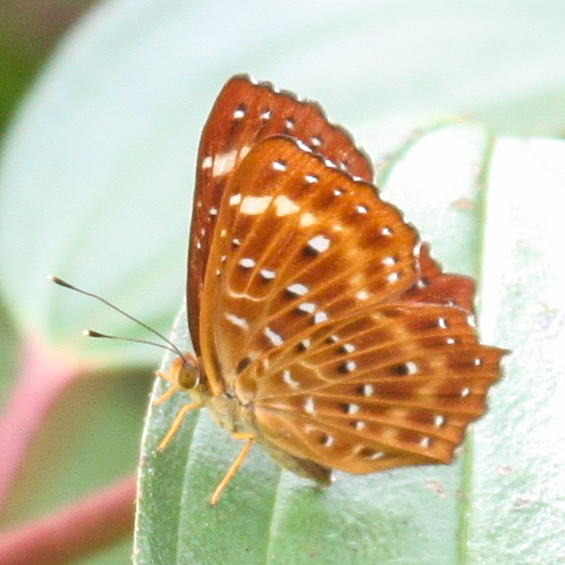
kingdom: Animalia
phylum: Arthropoda
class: Insecta
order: Lepidoptera
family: Riodinidae
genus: Zemeros
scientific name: Zemeros flegyas
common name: Punchinello
